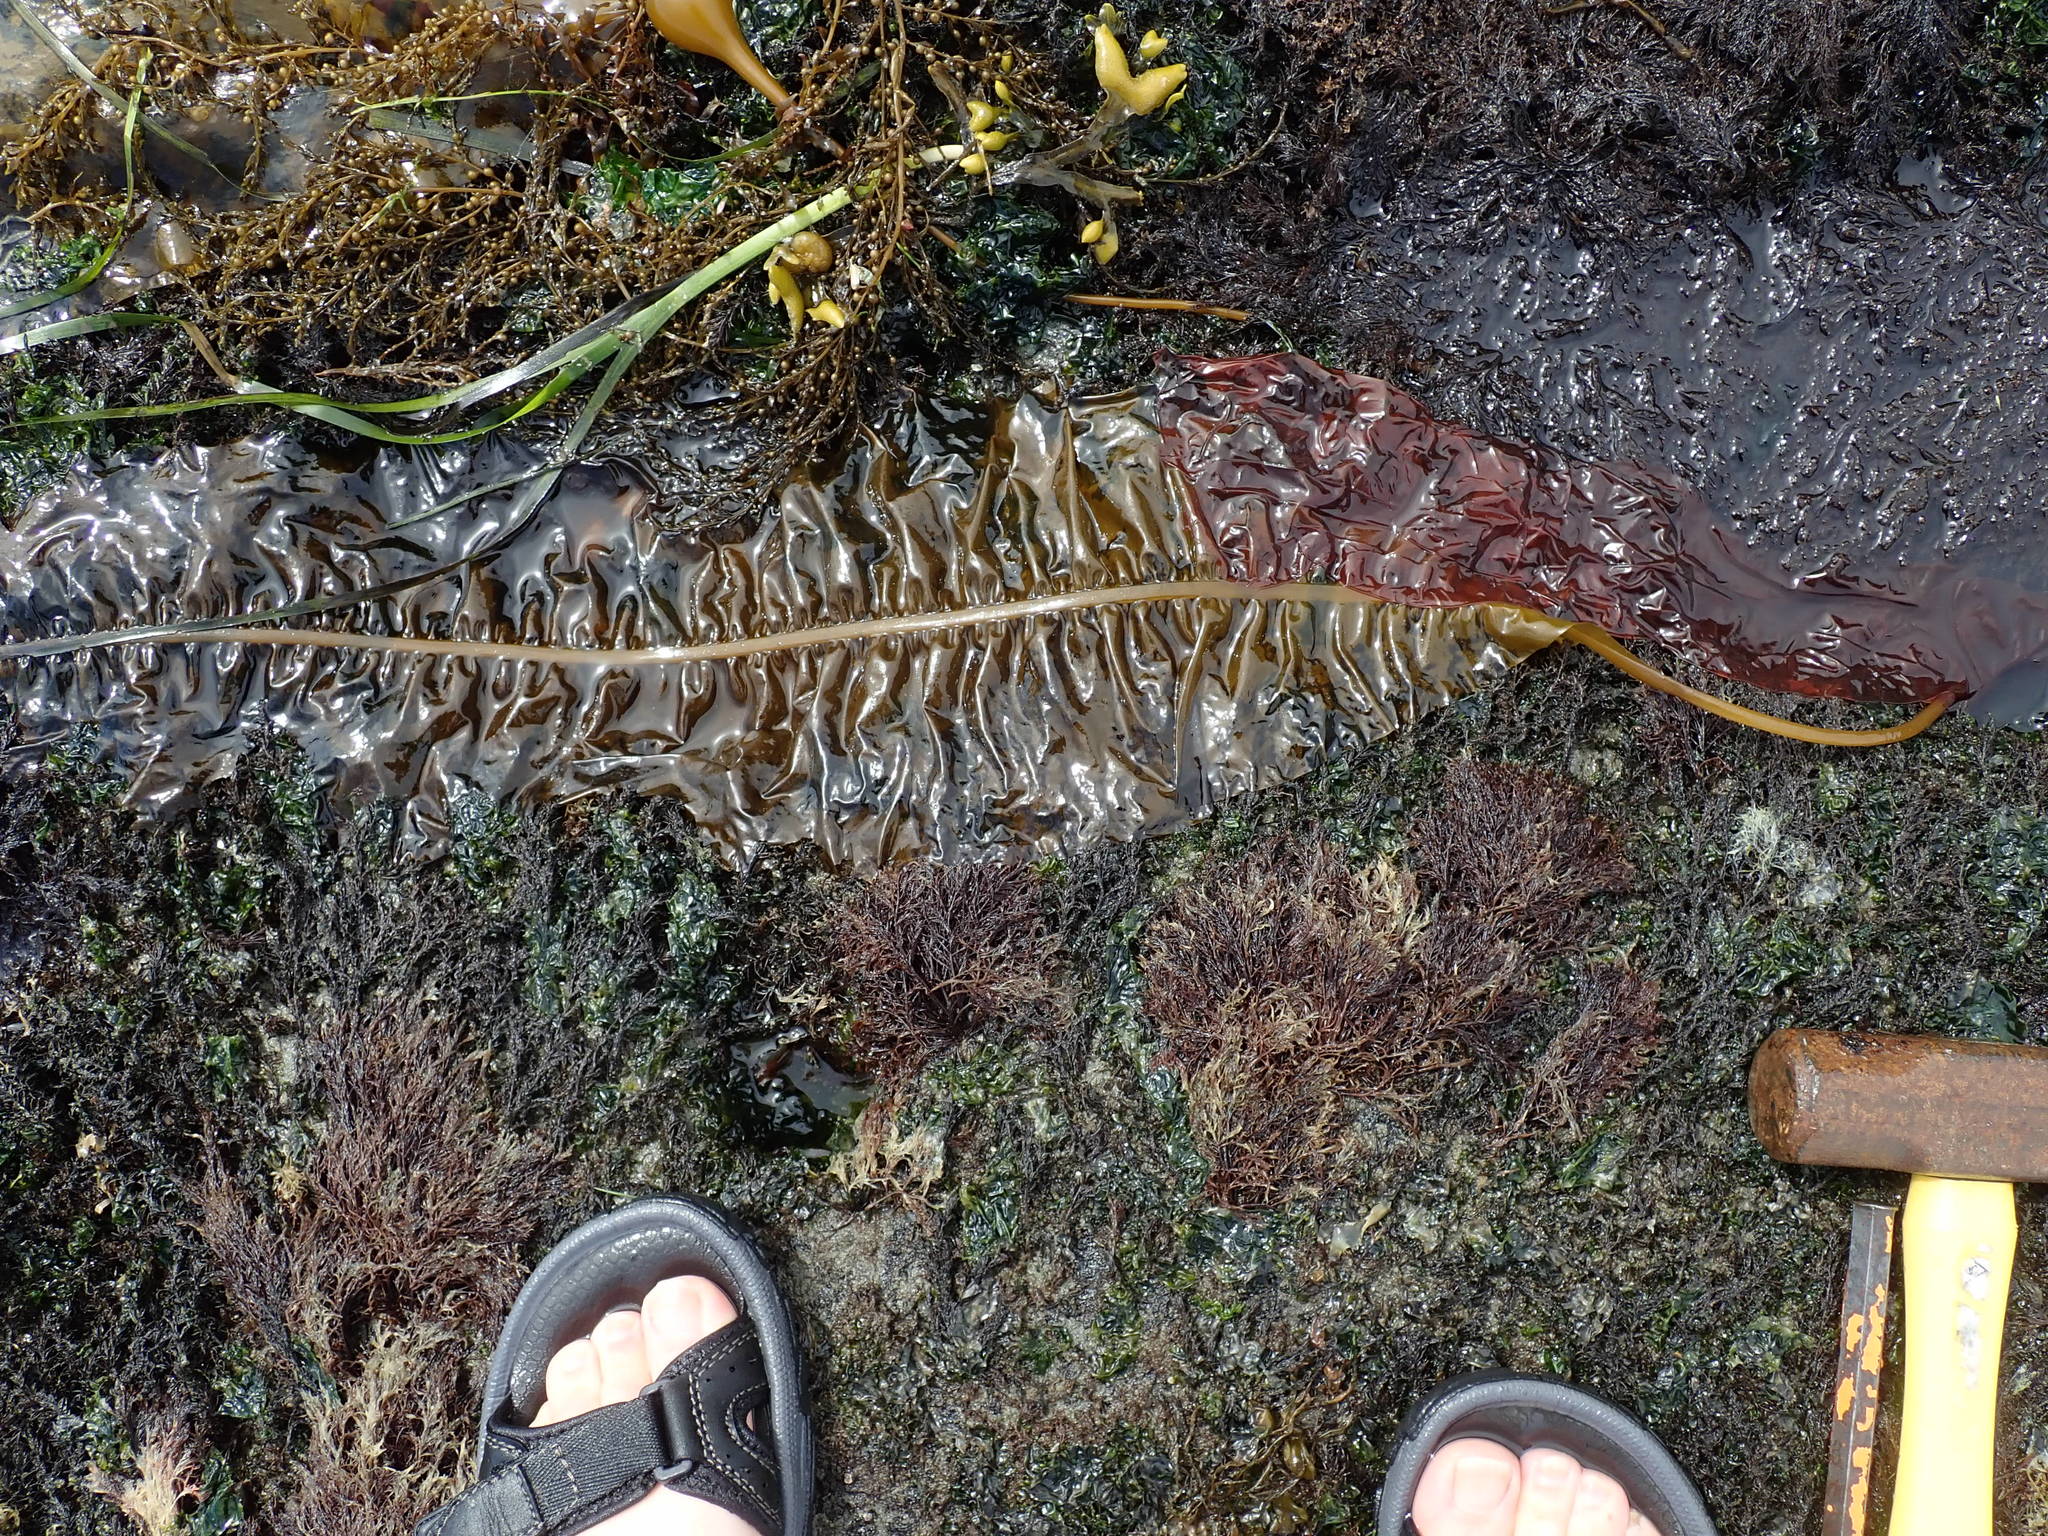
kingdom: Chromista
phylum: Ochrophyta
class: Phaeophyceae
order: Laminariales
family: Alariaceae
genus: Alaria
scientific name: Alaria marginata
